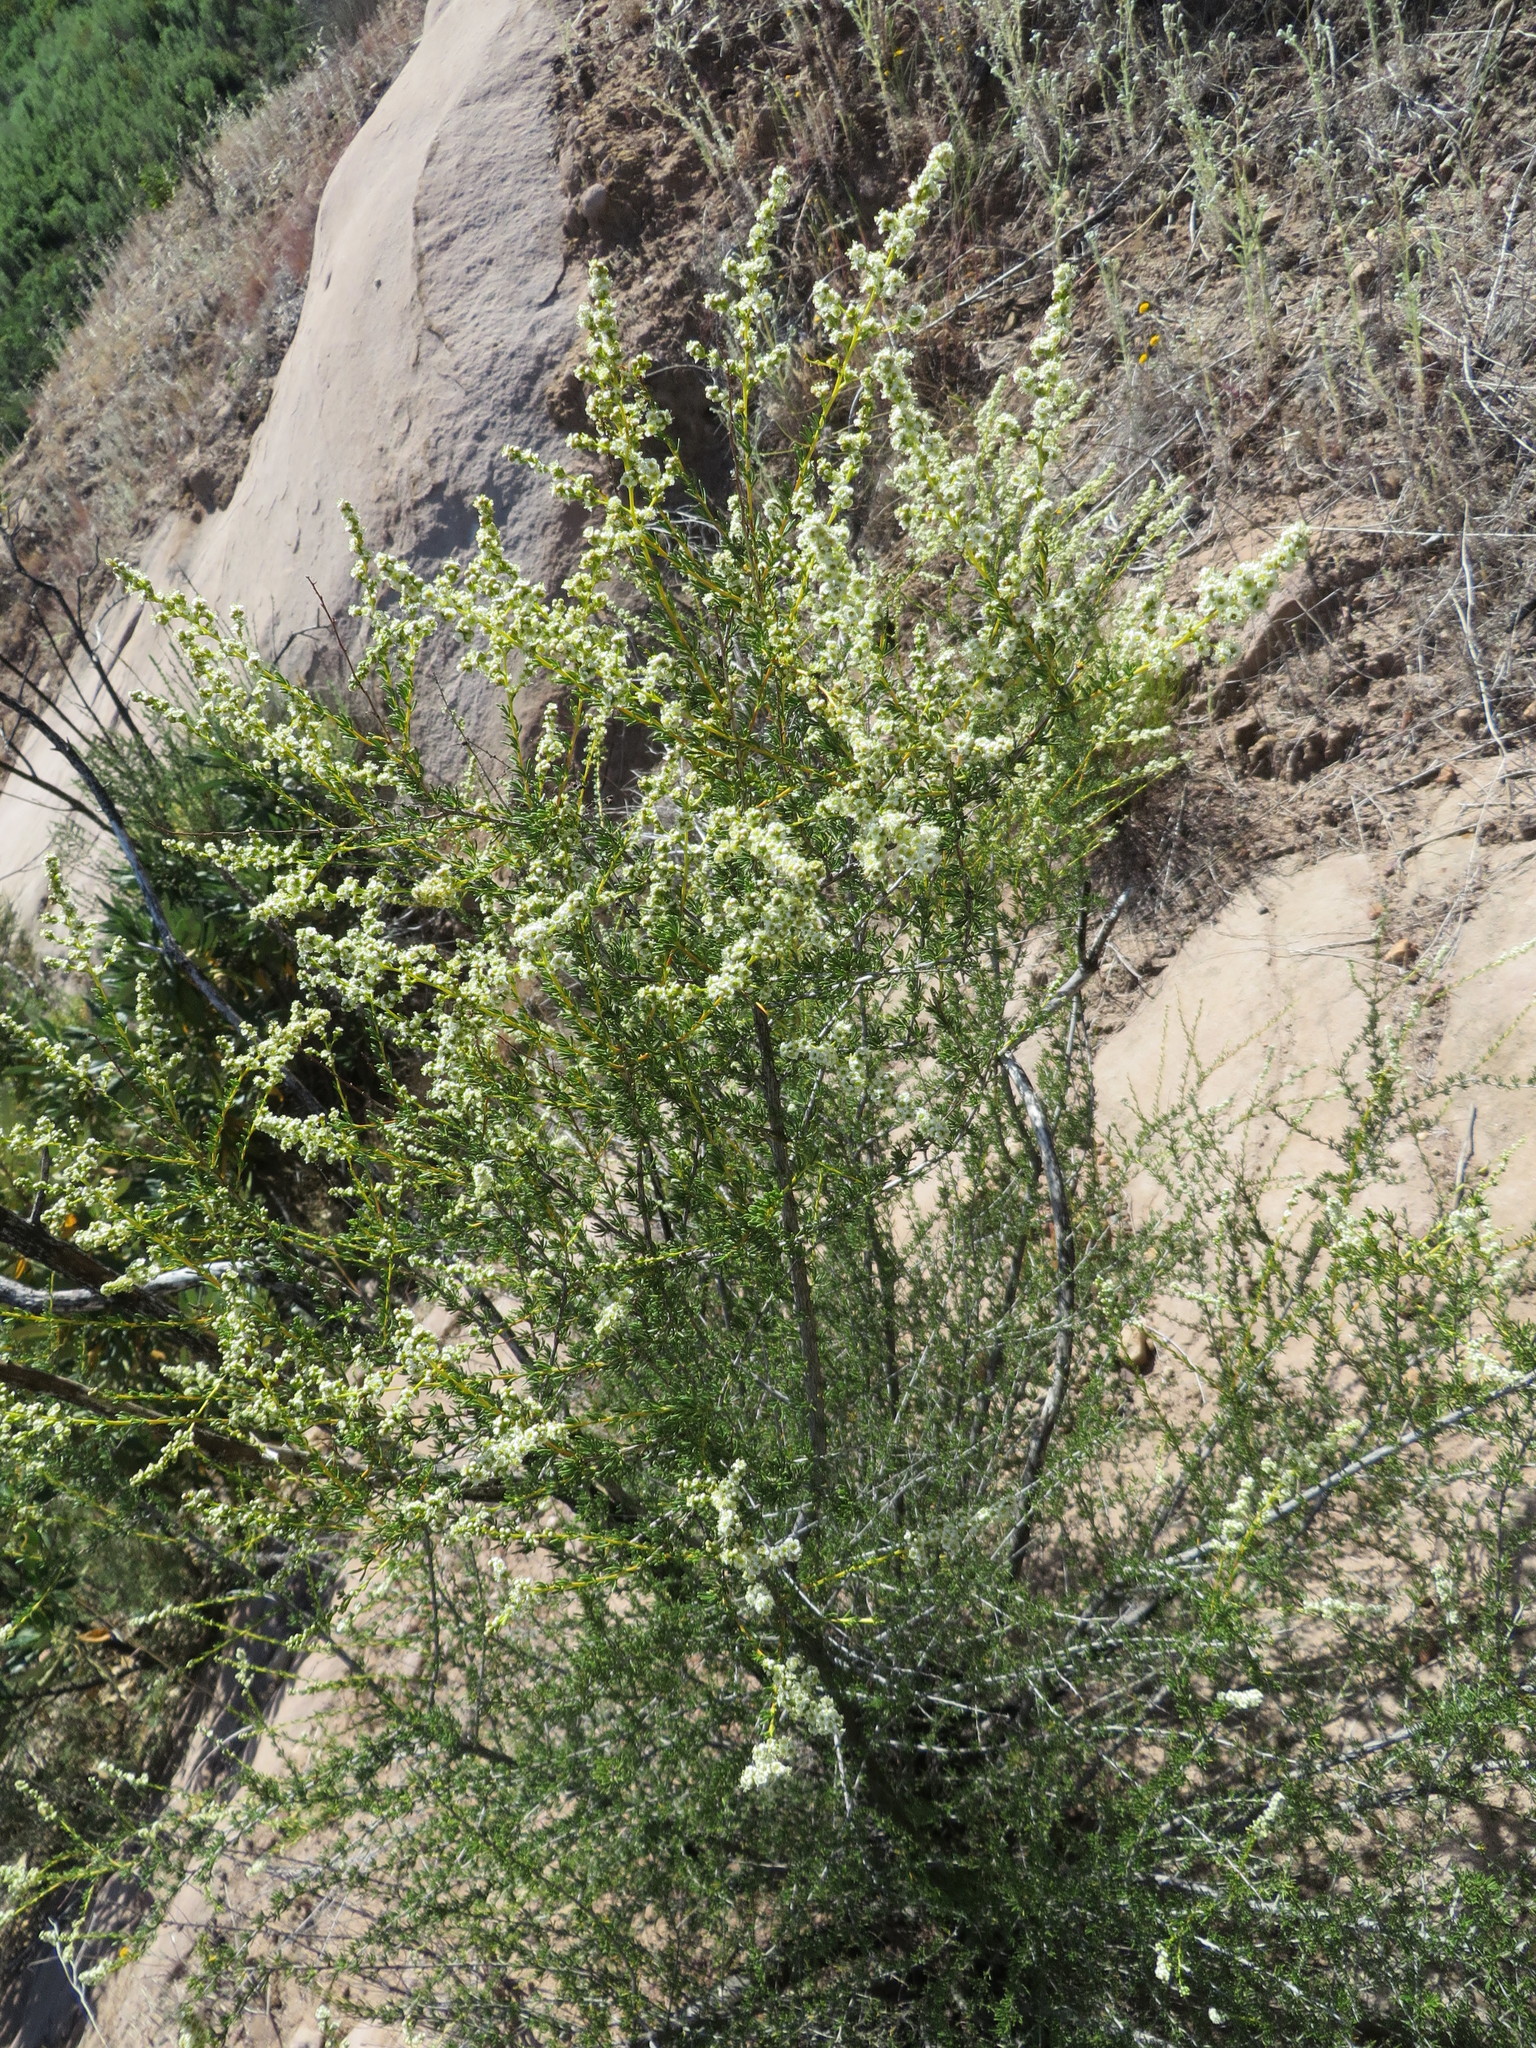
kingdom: Plantae
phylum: Tracheophyta
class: Magnoliopsida
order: Rosales
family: Rosaceae
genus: Adenostoma
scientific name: Adenostoma fasciculatum
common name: Chamise
